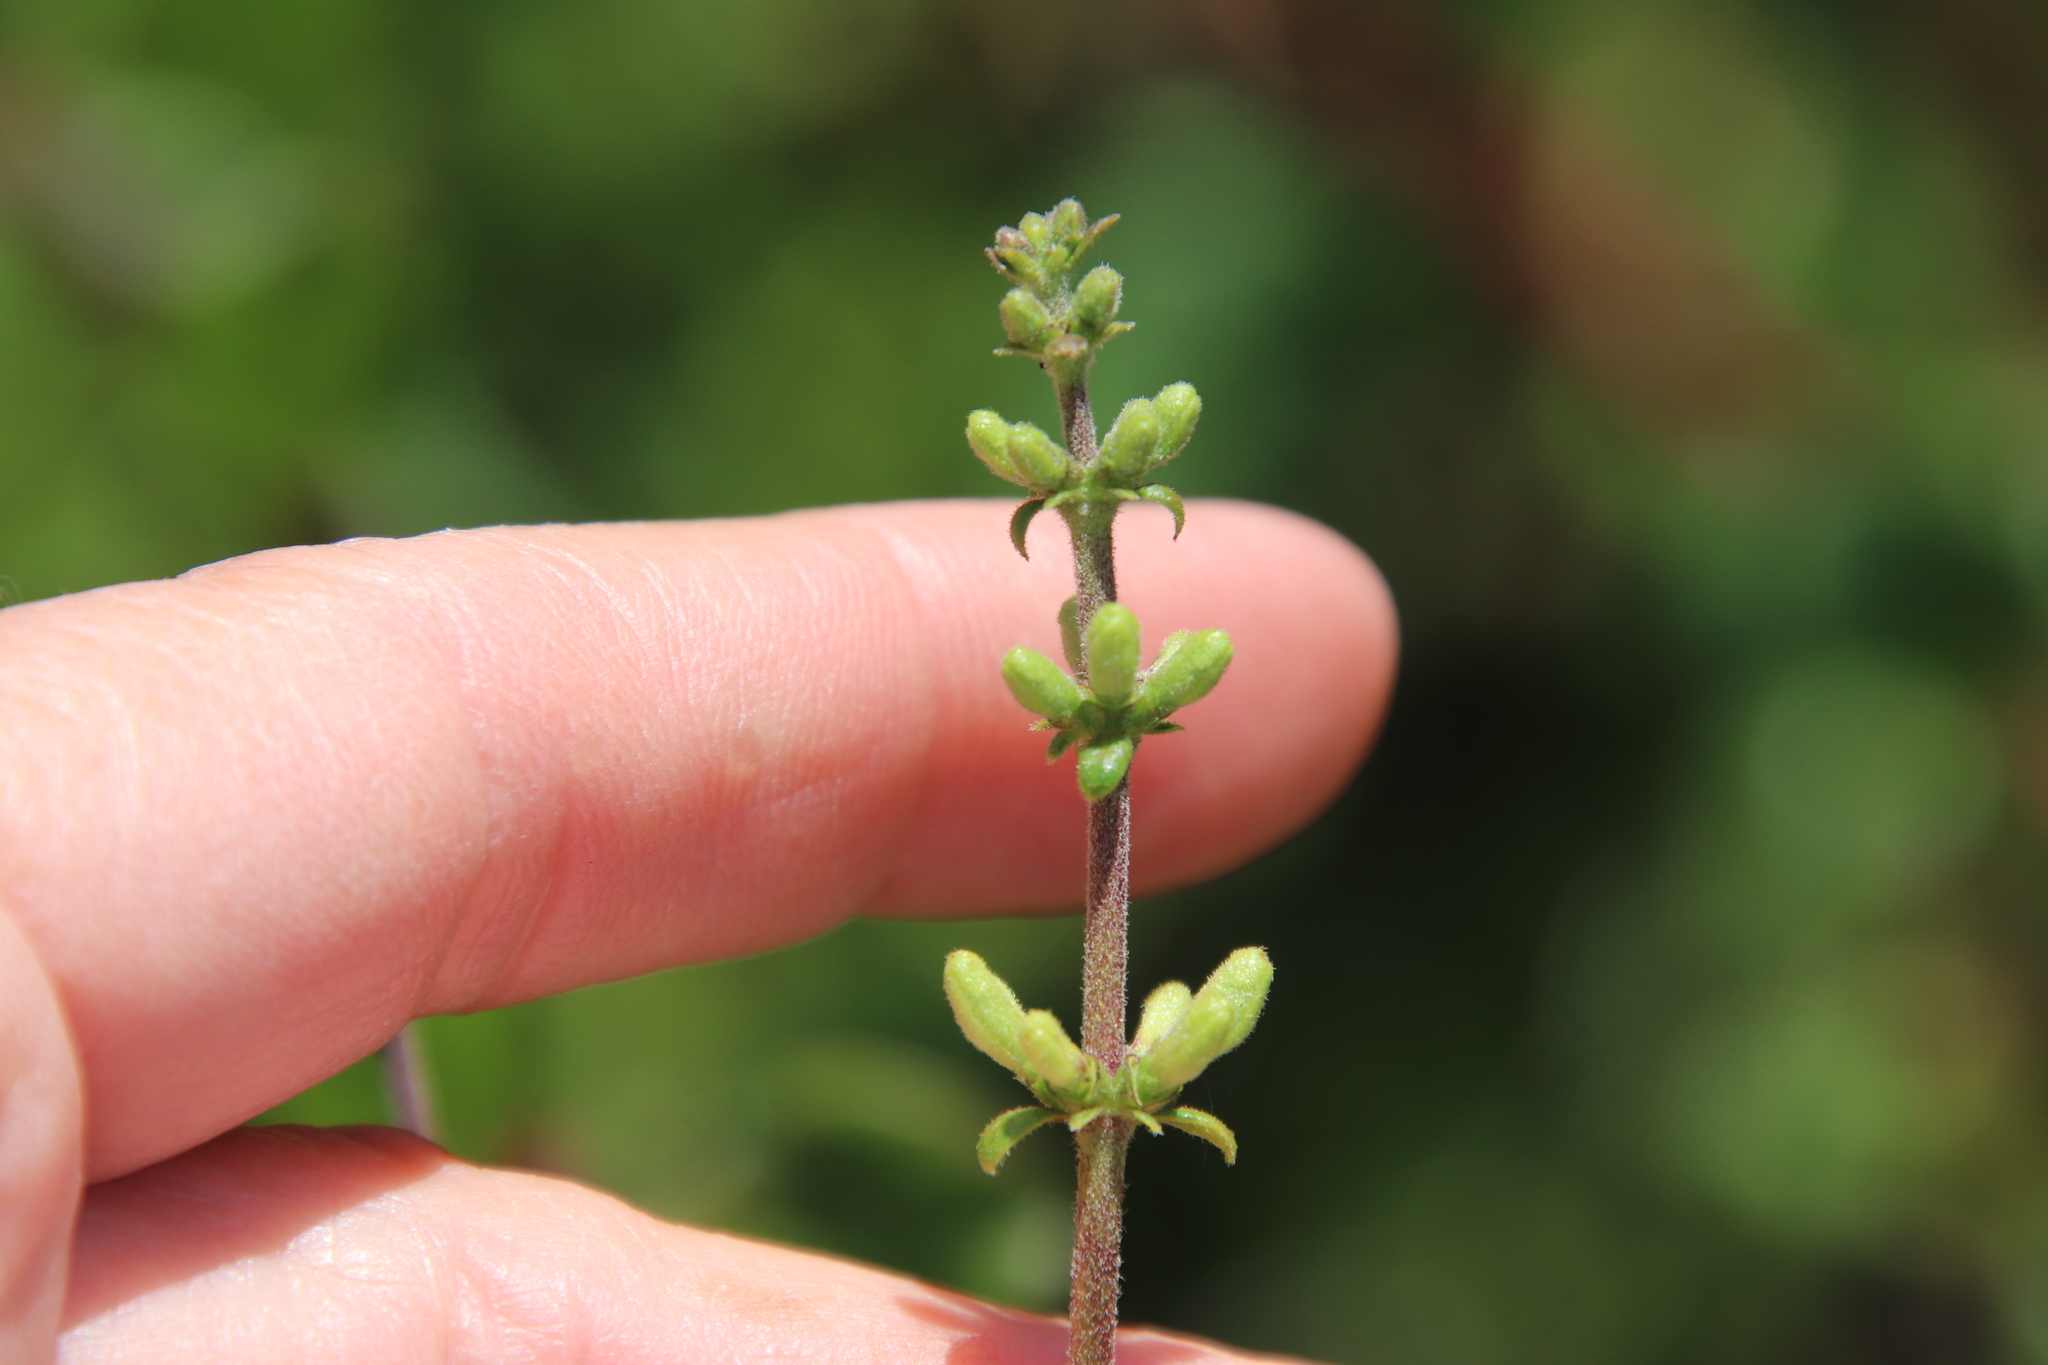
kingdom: Plantae
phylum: Tracheophyta
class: Magnoliopsida
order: Dipsacales
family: Caprifoliaceae
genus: Lonicera
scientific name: Lonicera subspicata
